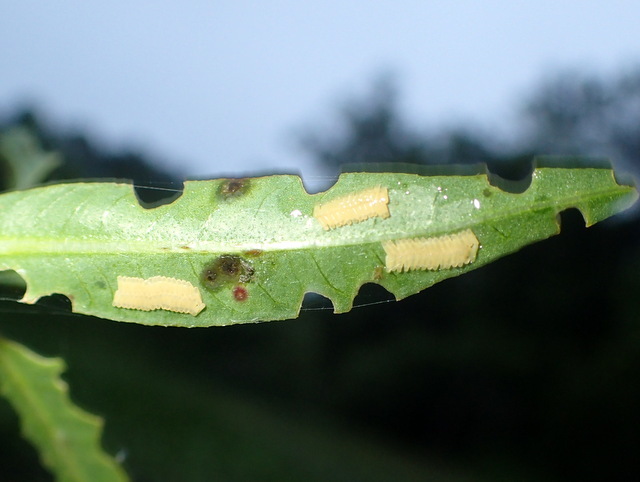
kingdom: Animalia
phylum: Arthropoda
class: Insecta
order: Coleoptera
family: Chrysomelidae
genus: Agasicles
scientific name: Agasicles hygrophila
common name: Alligatorweed flea beetle
